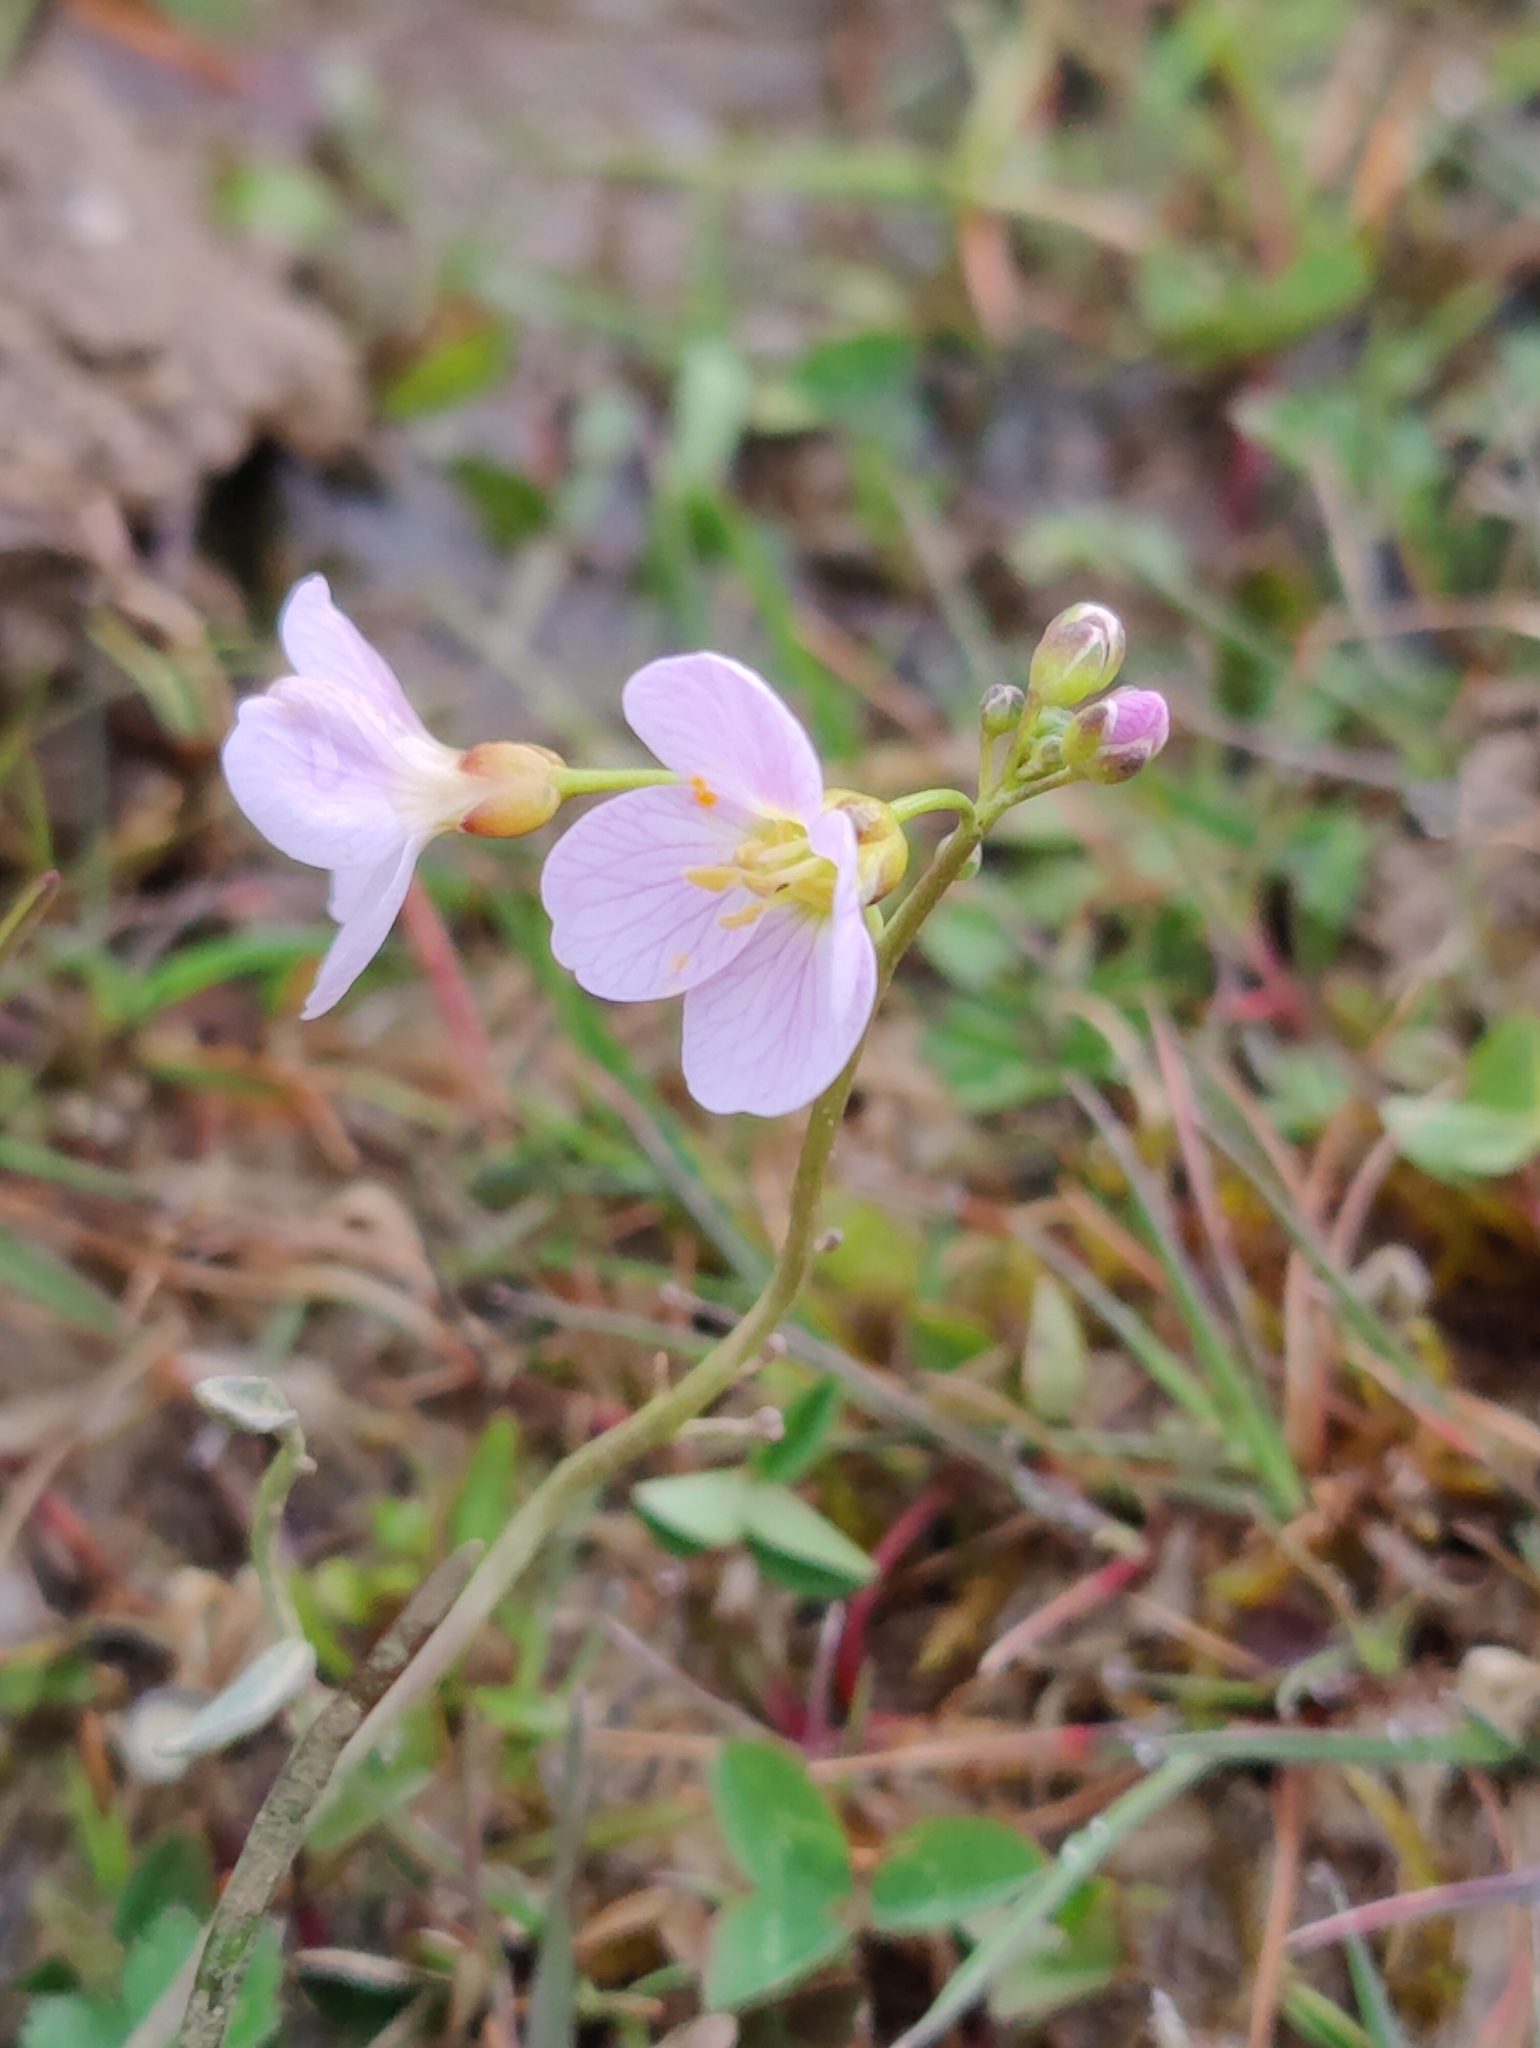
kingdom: Plantae
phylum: Tracheophyta
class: Magnoliopsida
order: Brassicales
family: Brassicaceae
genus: Cardamine
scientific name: Cardamine pratensis
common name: Cuckoo flower
